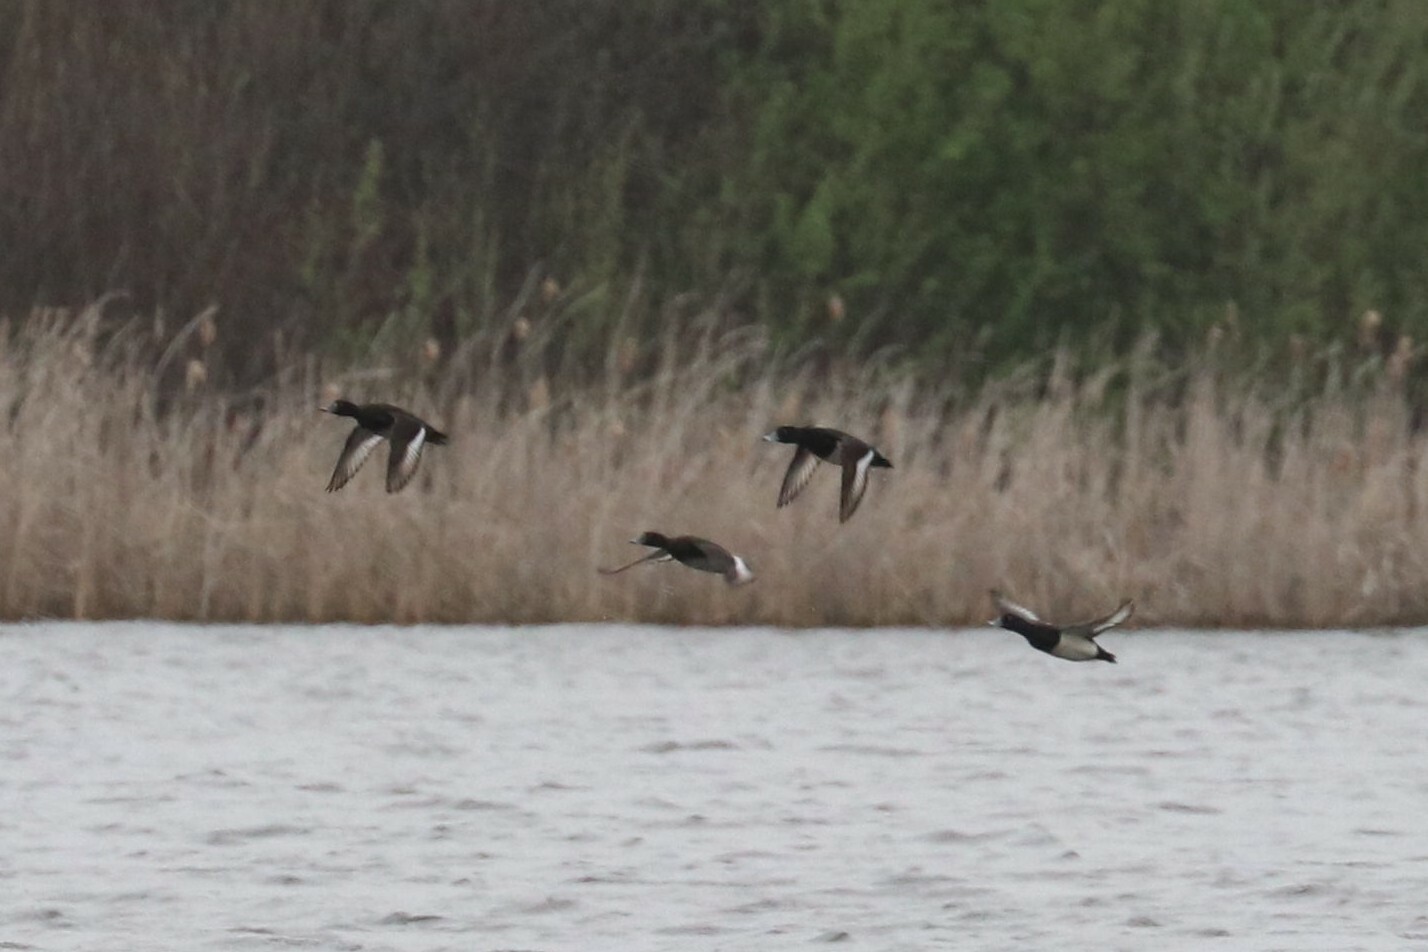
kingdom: Animalia
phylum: Chordata
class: Aves
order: Anseriformes
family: Anatidae
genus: Aythya
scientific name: Aythya fuligula
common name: Tufted duck
